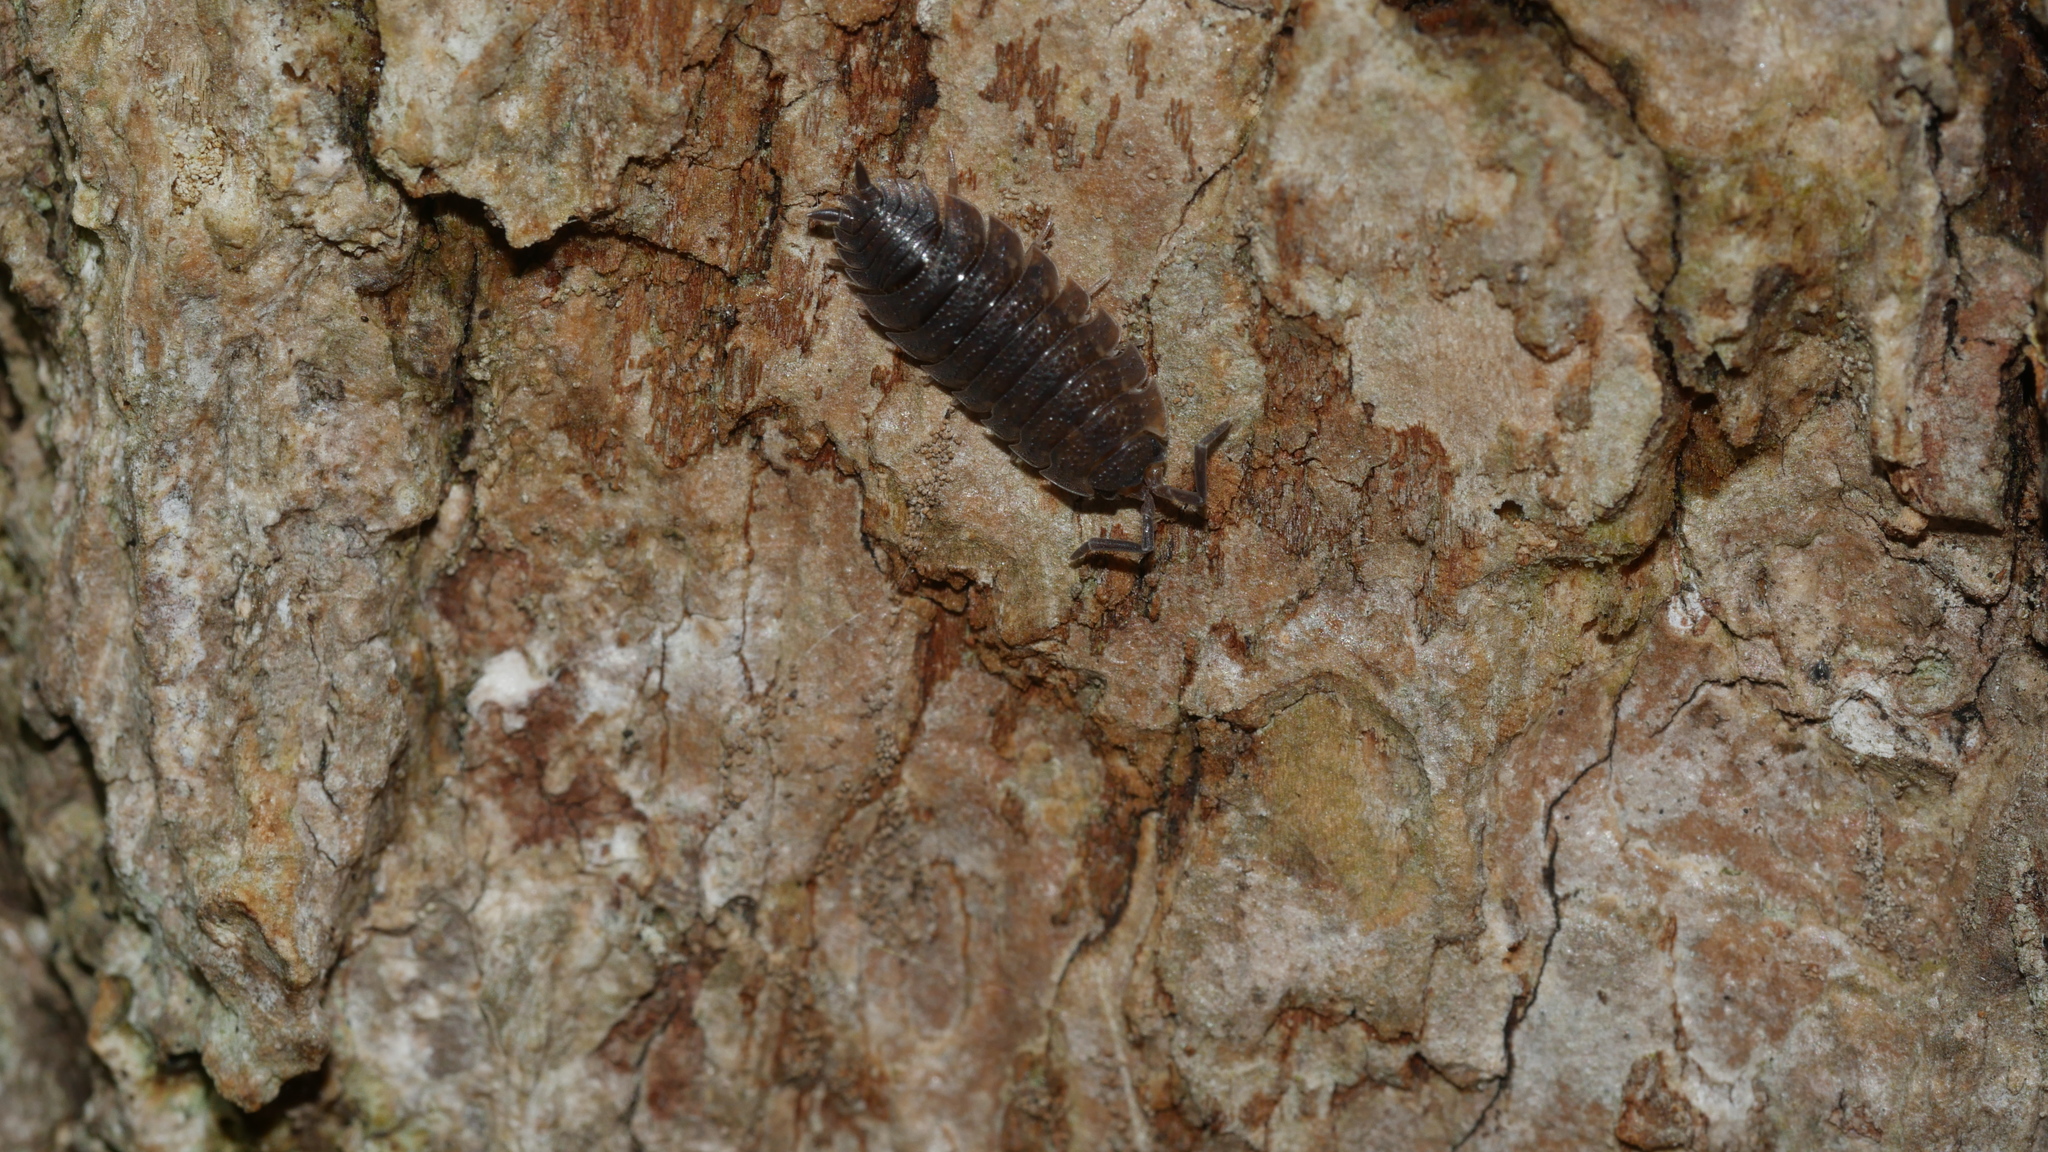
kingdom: Animalia
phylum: Arthropoda
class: Malacostraca
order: Isopoda
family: Porcellionidae
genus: Porcellio
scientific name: Porcellio scaber
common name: Common rough woodlouse
